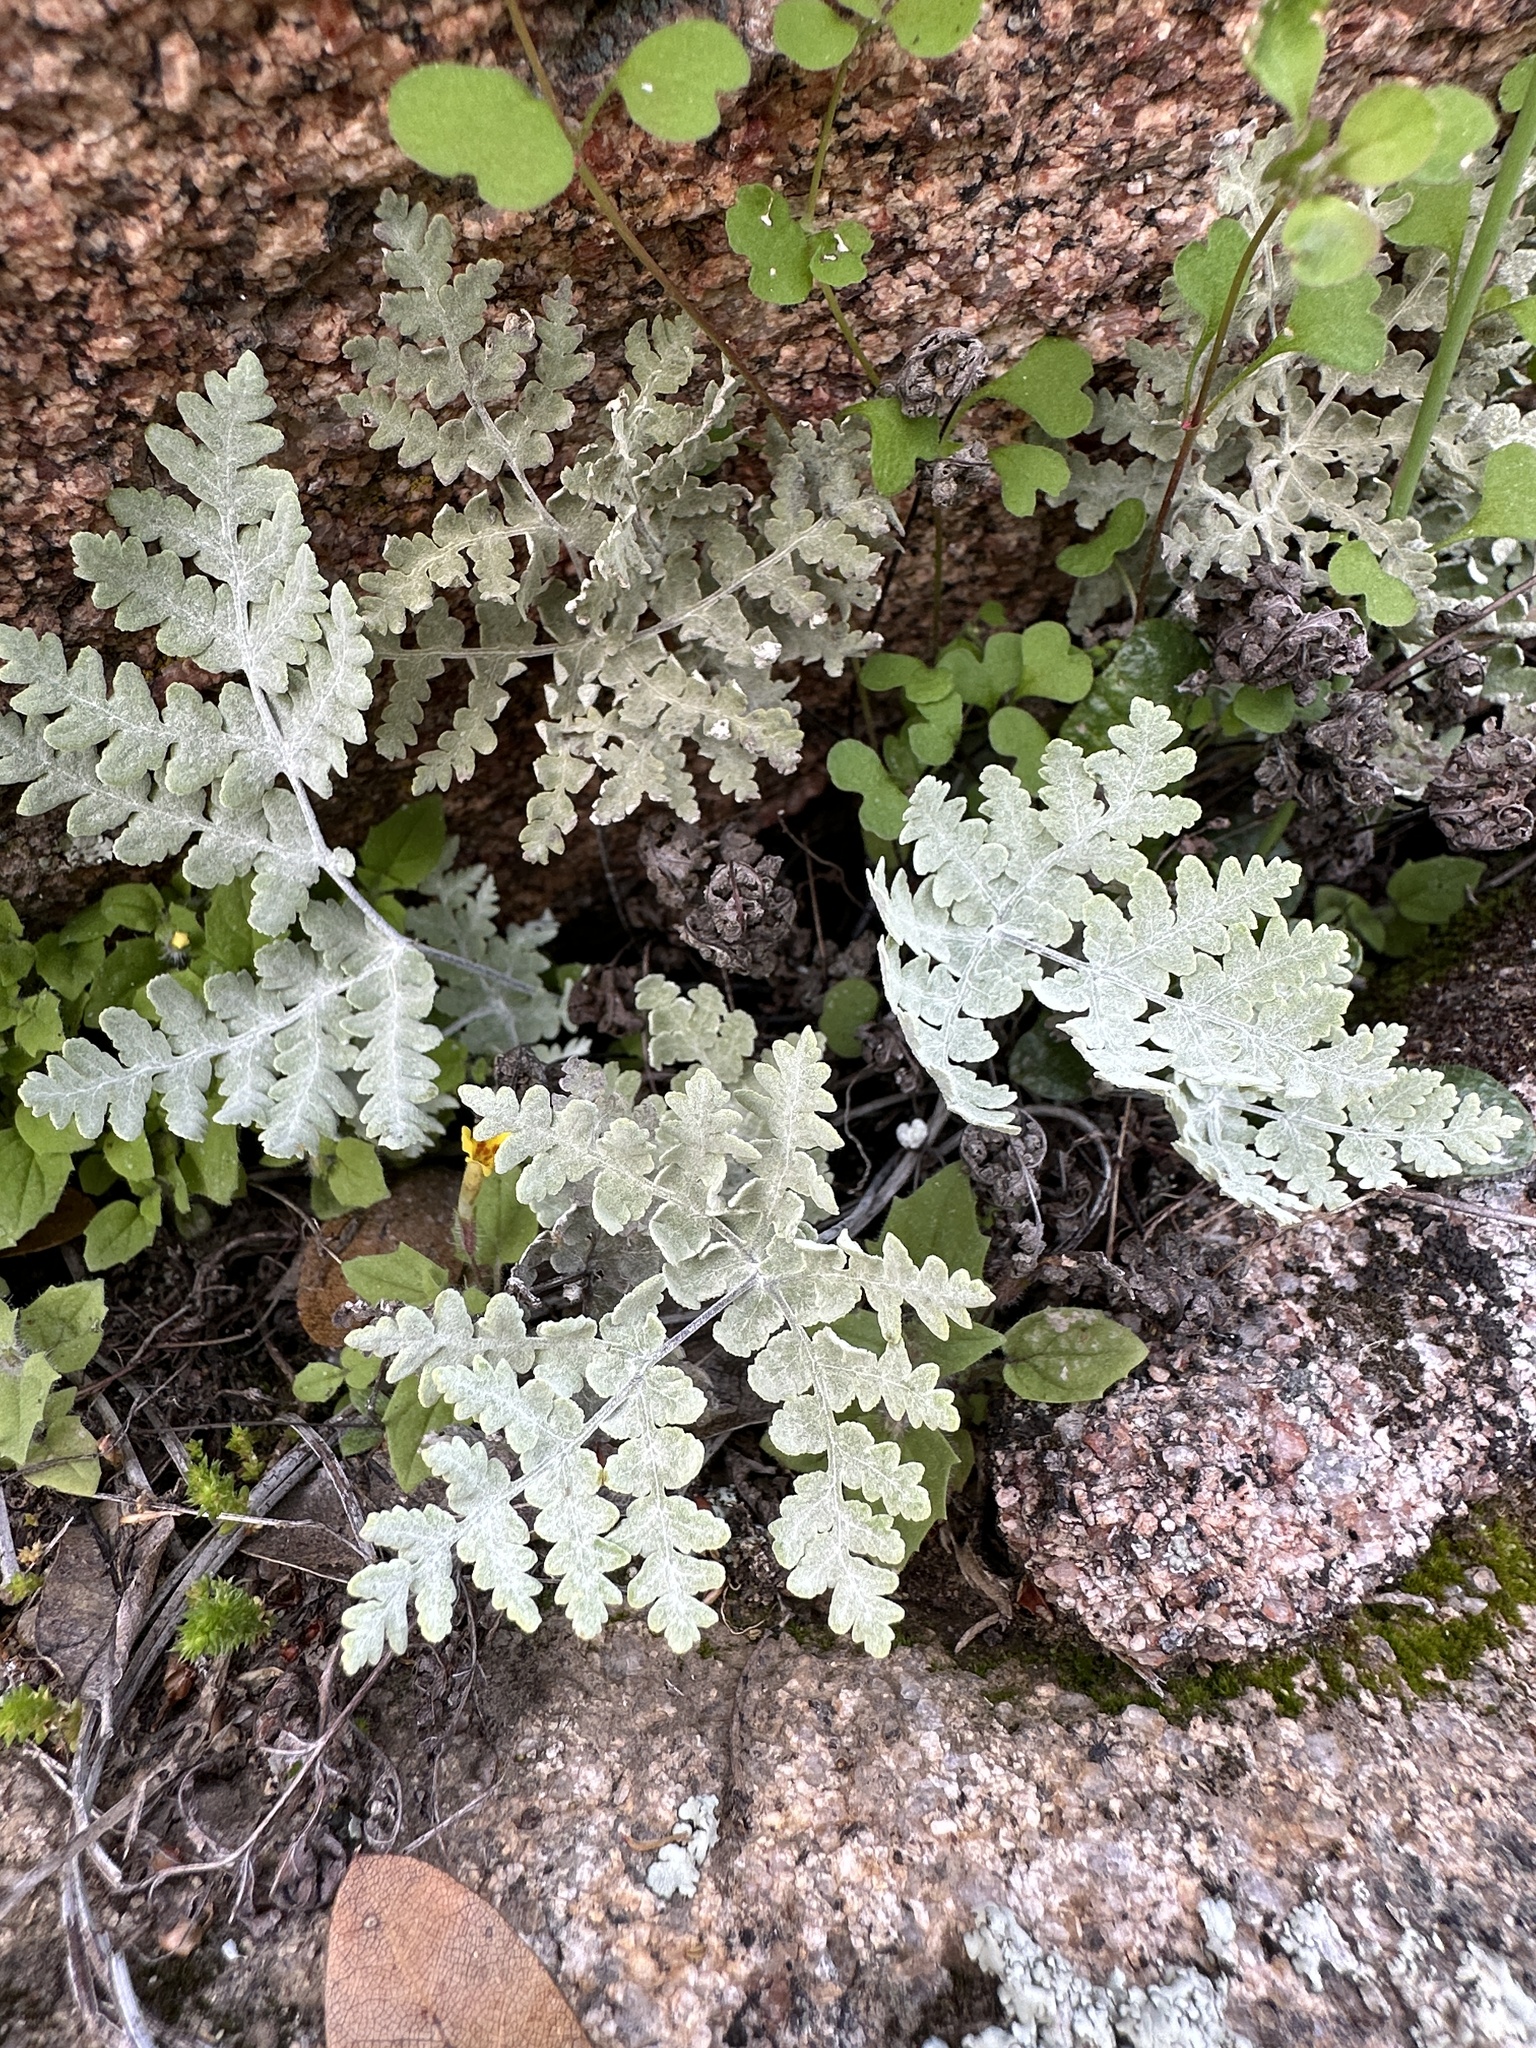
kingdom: Plantae
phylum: Tracheophyta
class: Polypodiopsida
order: Polypodiales
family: Pteridaceae
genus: Pentagramma
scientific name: Pentagramma pallida
